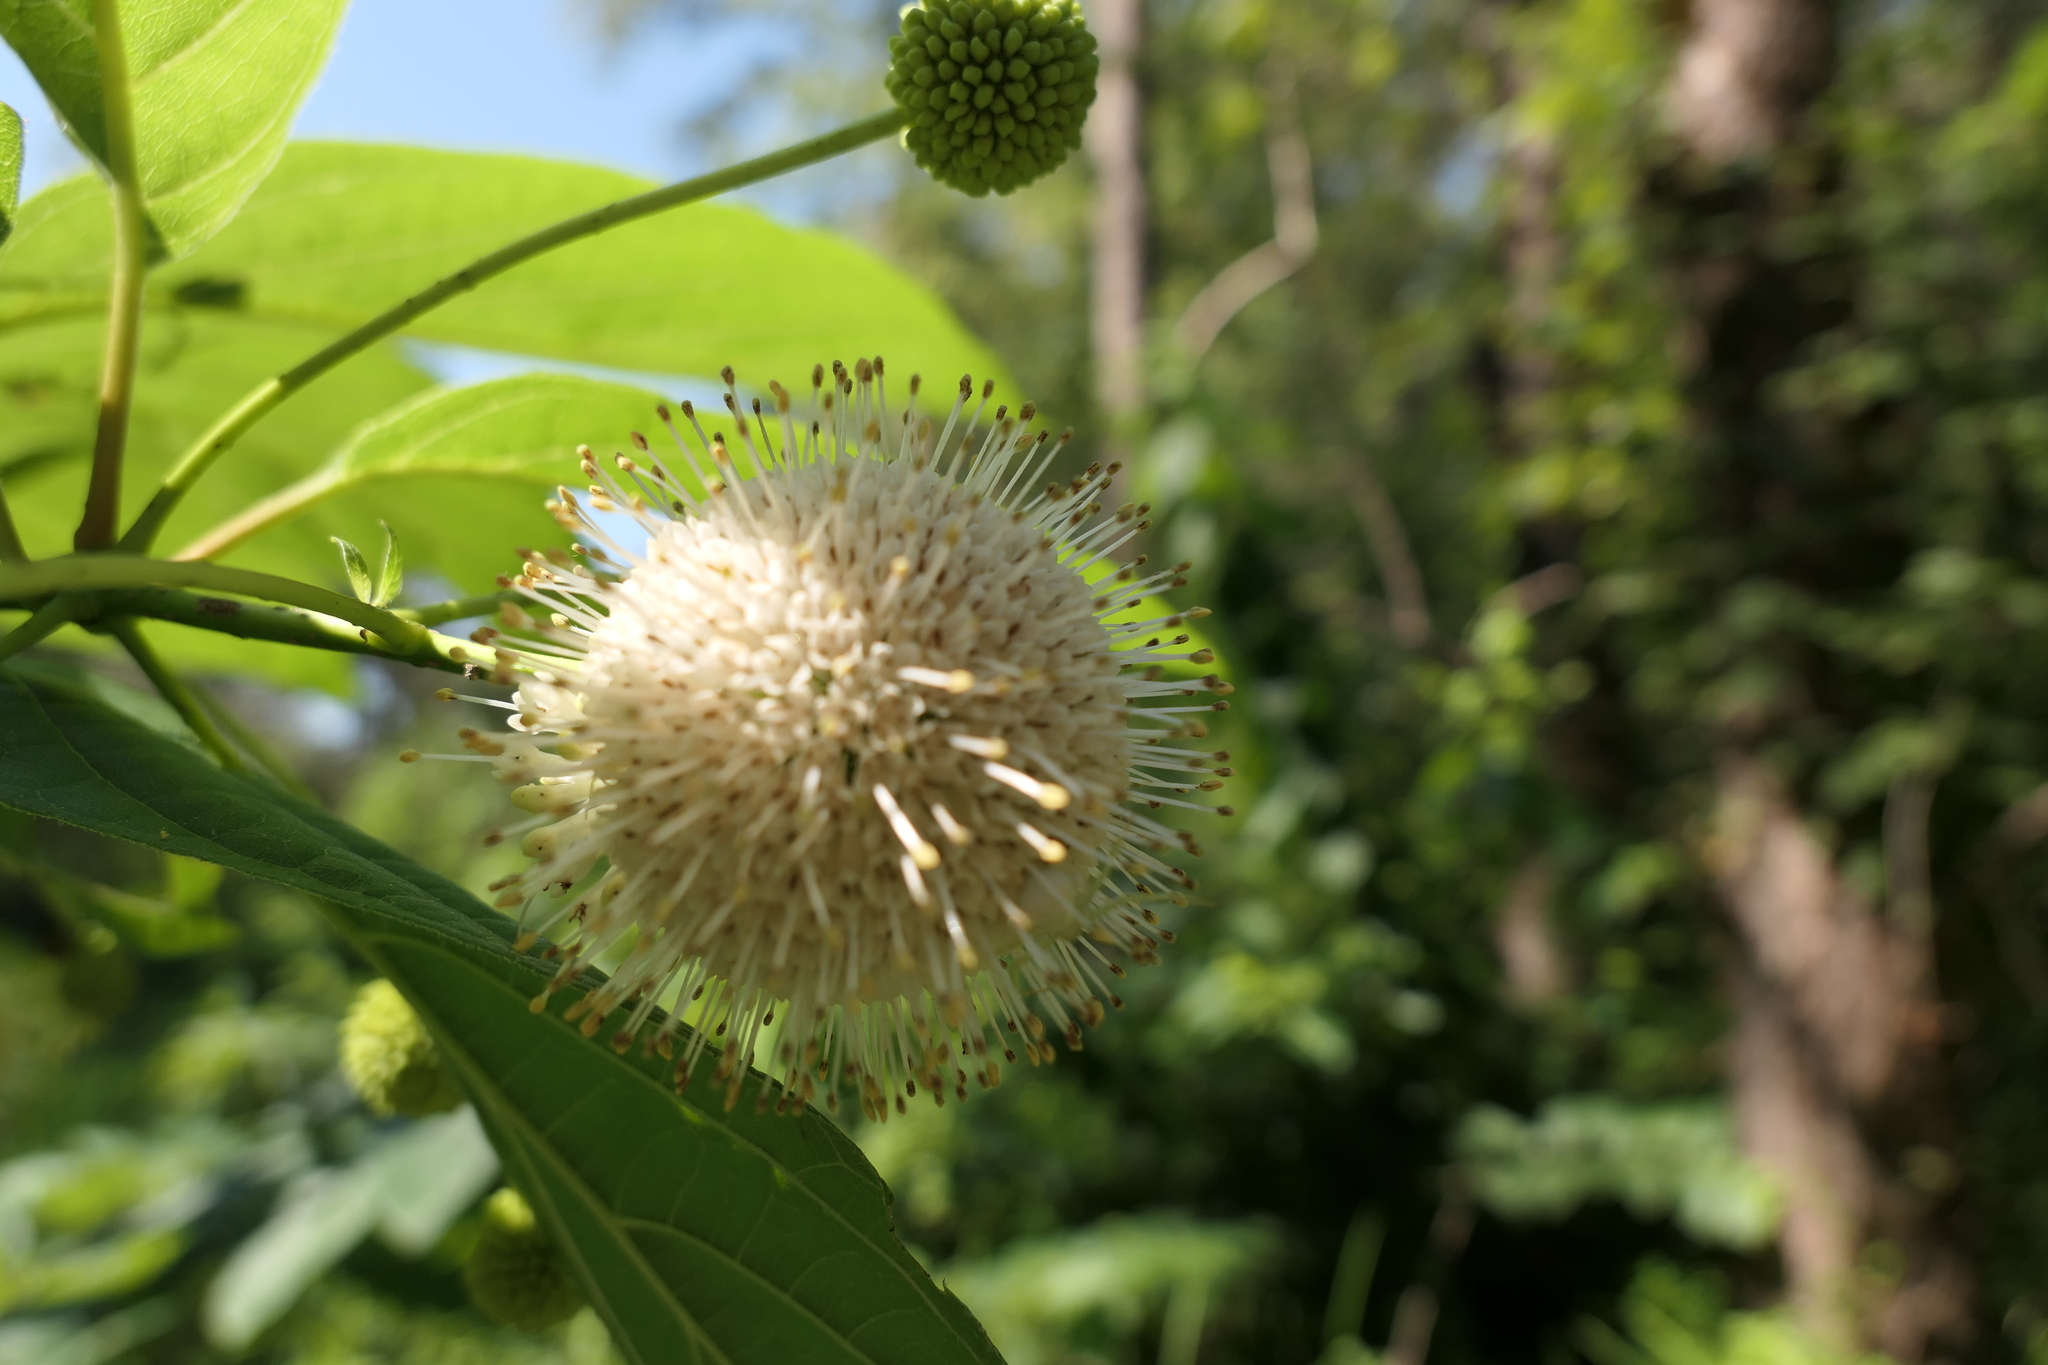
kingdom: Plantae
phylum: Tracheophyta
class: Magnoliopsida
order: Gentianales
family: Rubiaceae
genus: Cephalanthus
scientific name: Cephalanthus occidentalis
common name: Button-willow
